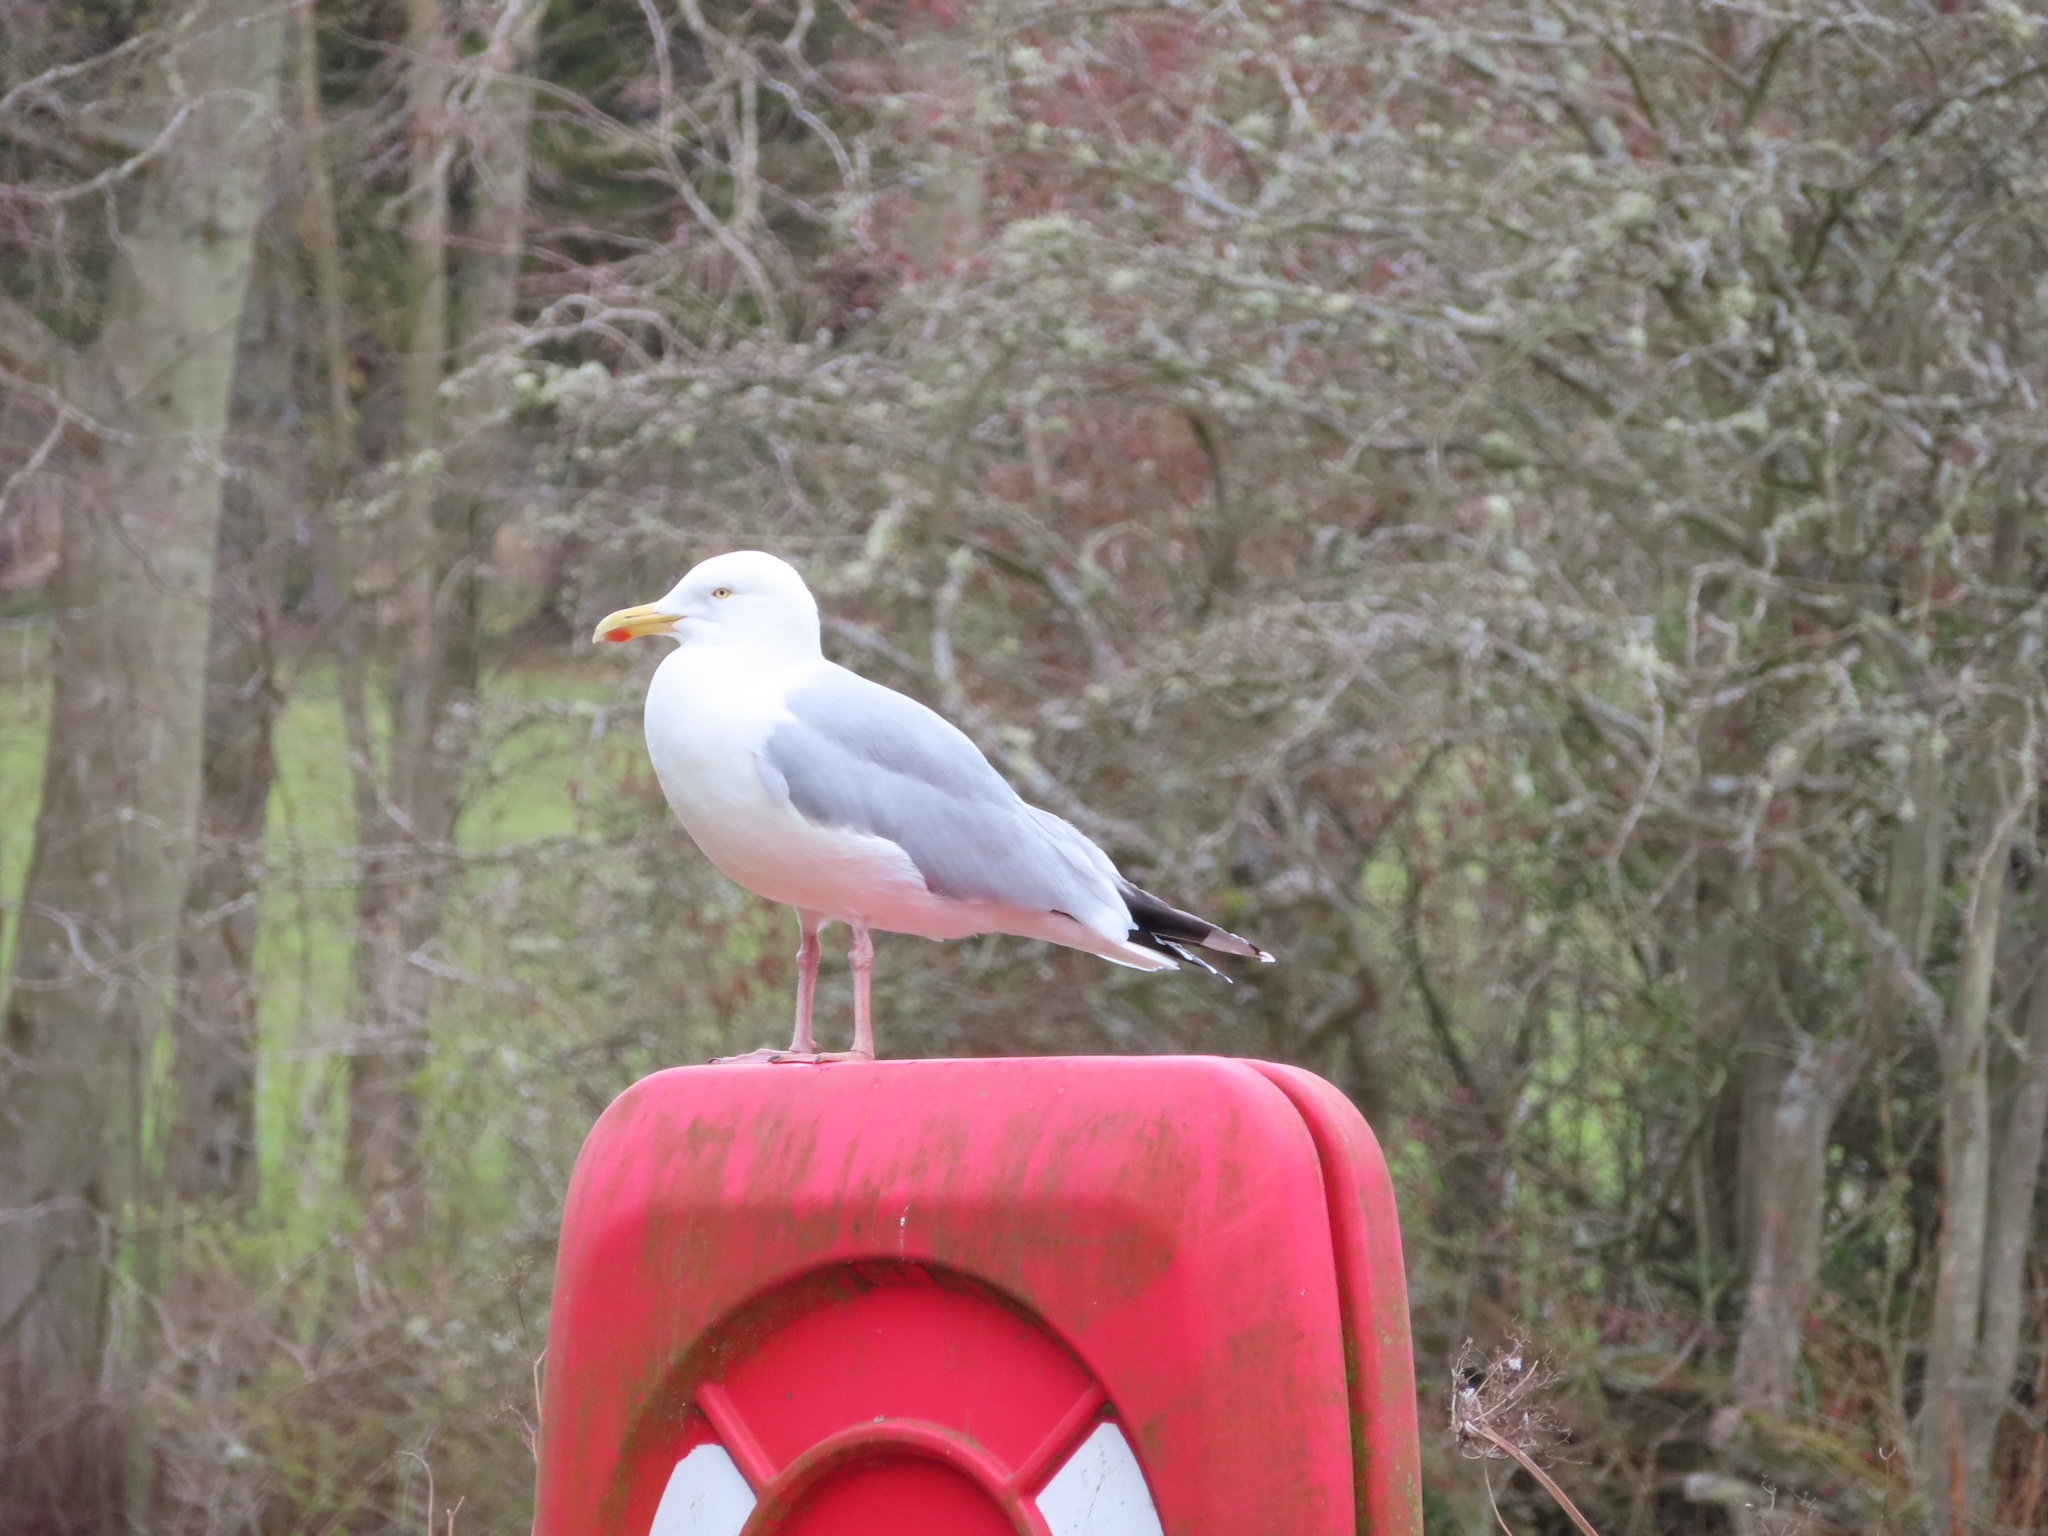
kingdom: Animalia
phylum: Chordata
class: Aves
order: Charadriiformes
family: Laridae
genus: Larus
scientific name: Larus argentatus
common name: Herring gull
